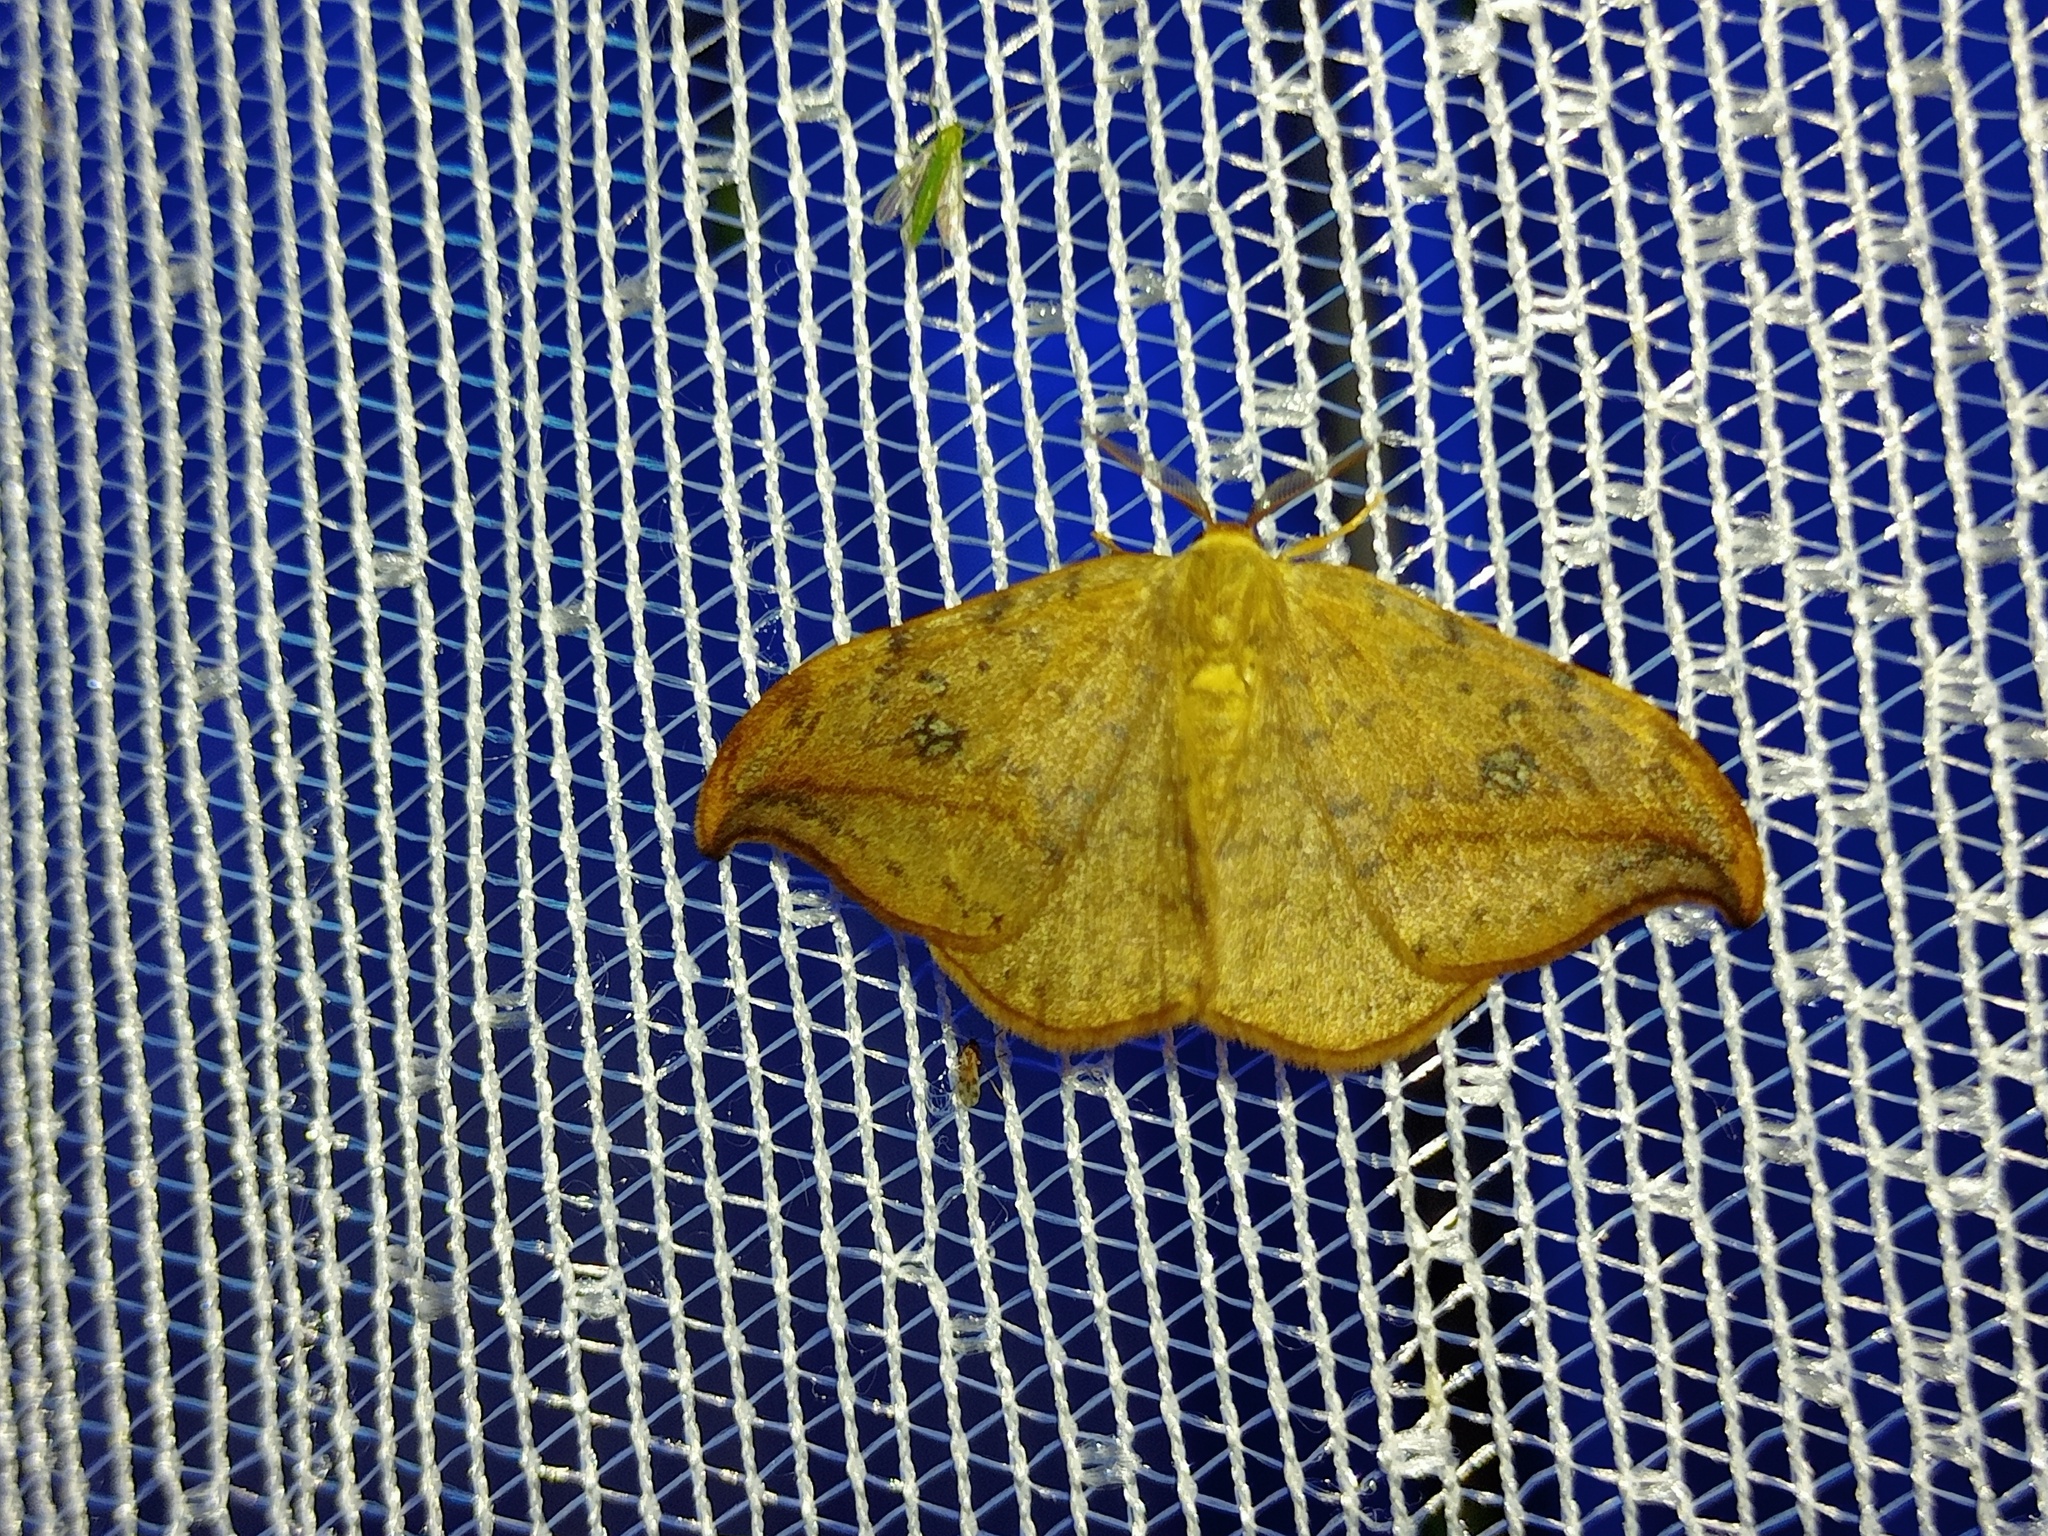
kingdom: Animalia
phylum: Arthropoda
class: Insecta
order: Lepidoptera
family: Drepanidae
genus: Drepana
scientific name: Drepana falcataria
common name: Pebble hook-tip
